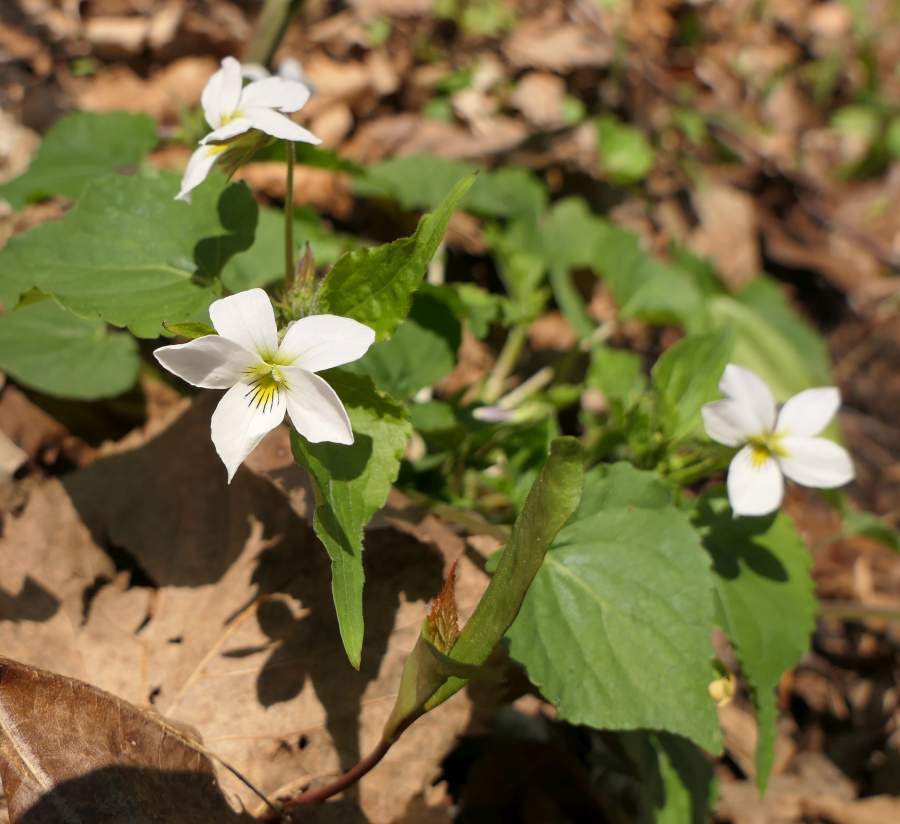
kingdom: Plantae
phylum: Tracheophyta
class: Magnoliopsida
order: Malpighiales
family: Violaceae
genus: Viola
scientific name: Viola canadensis
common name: Canada violet
